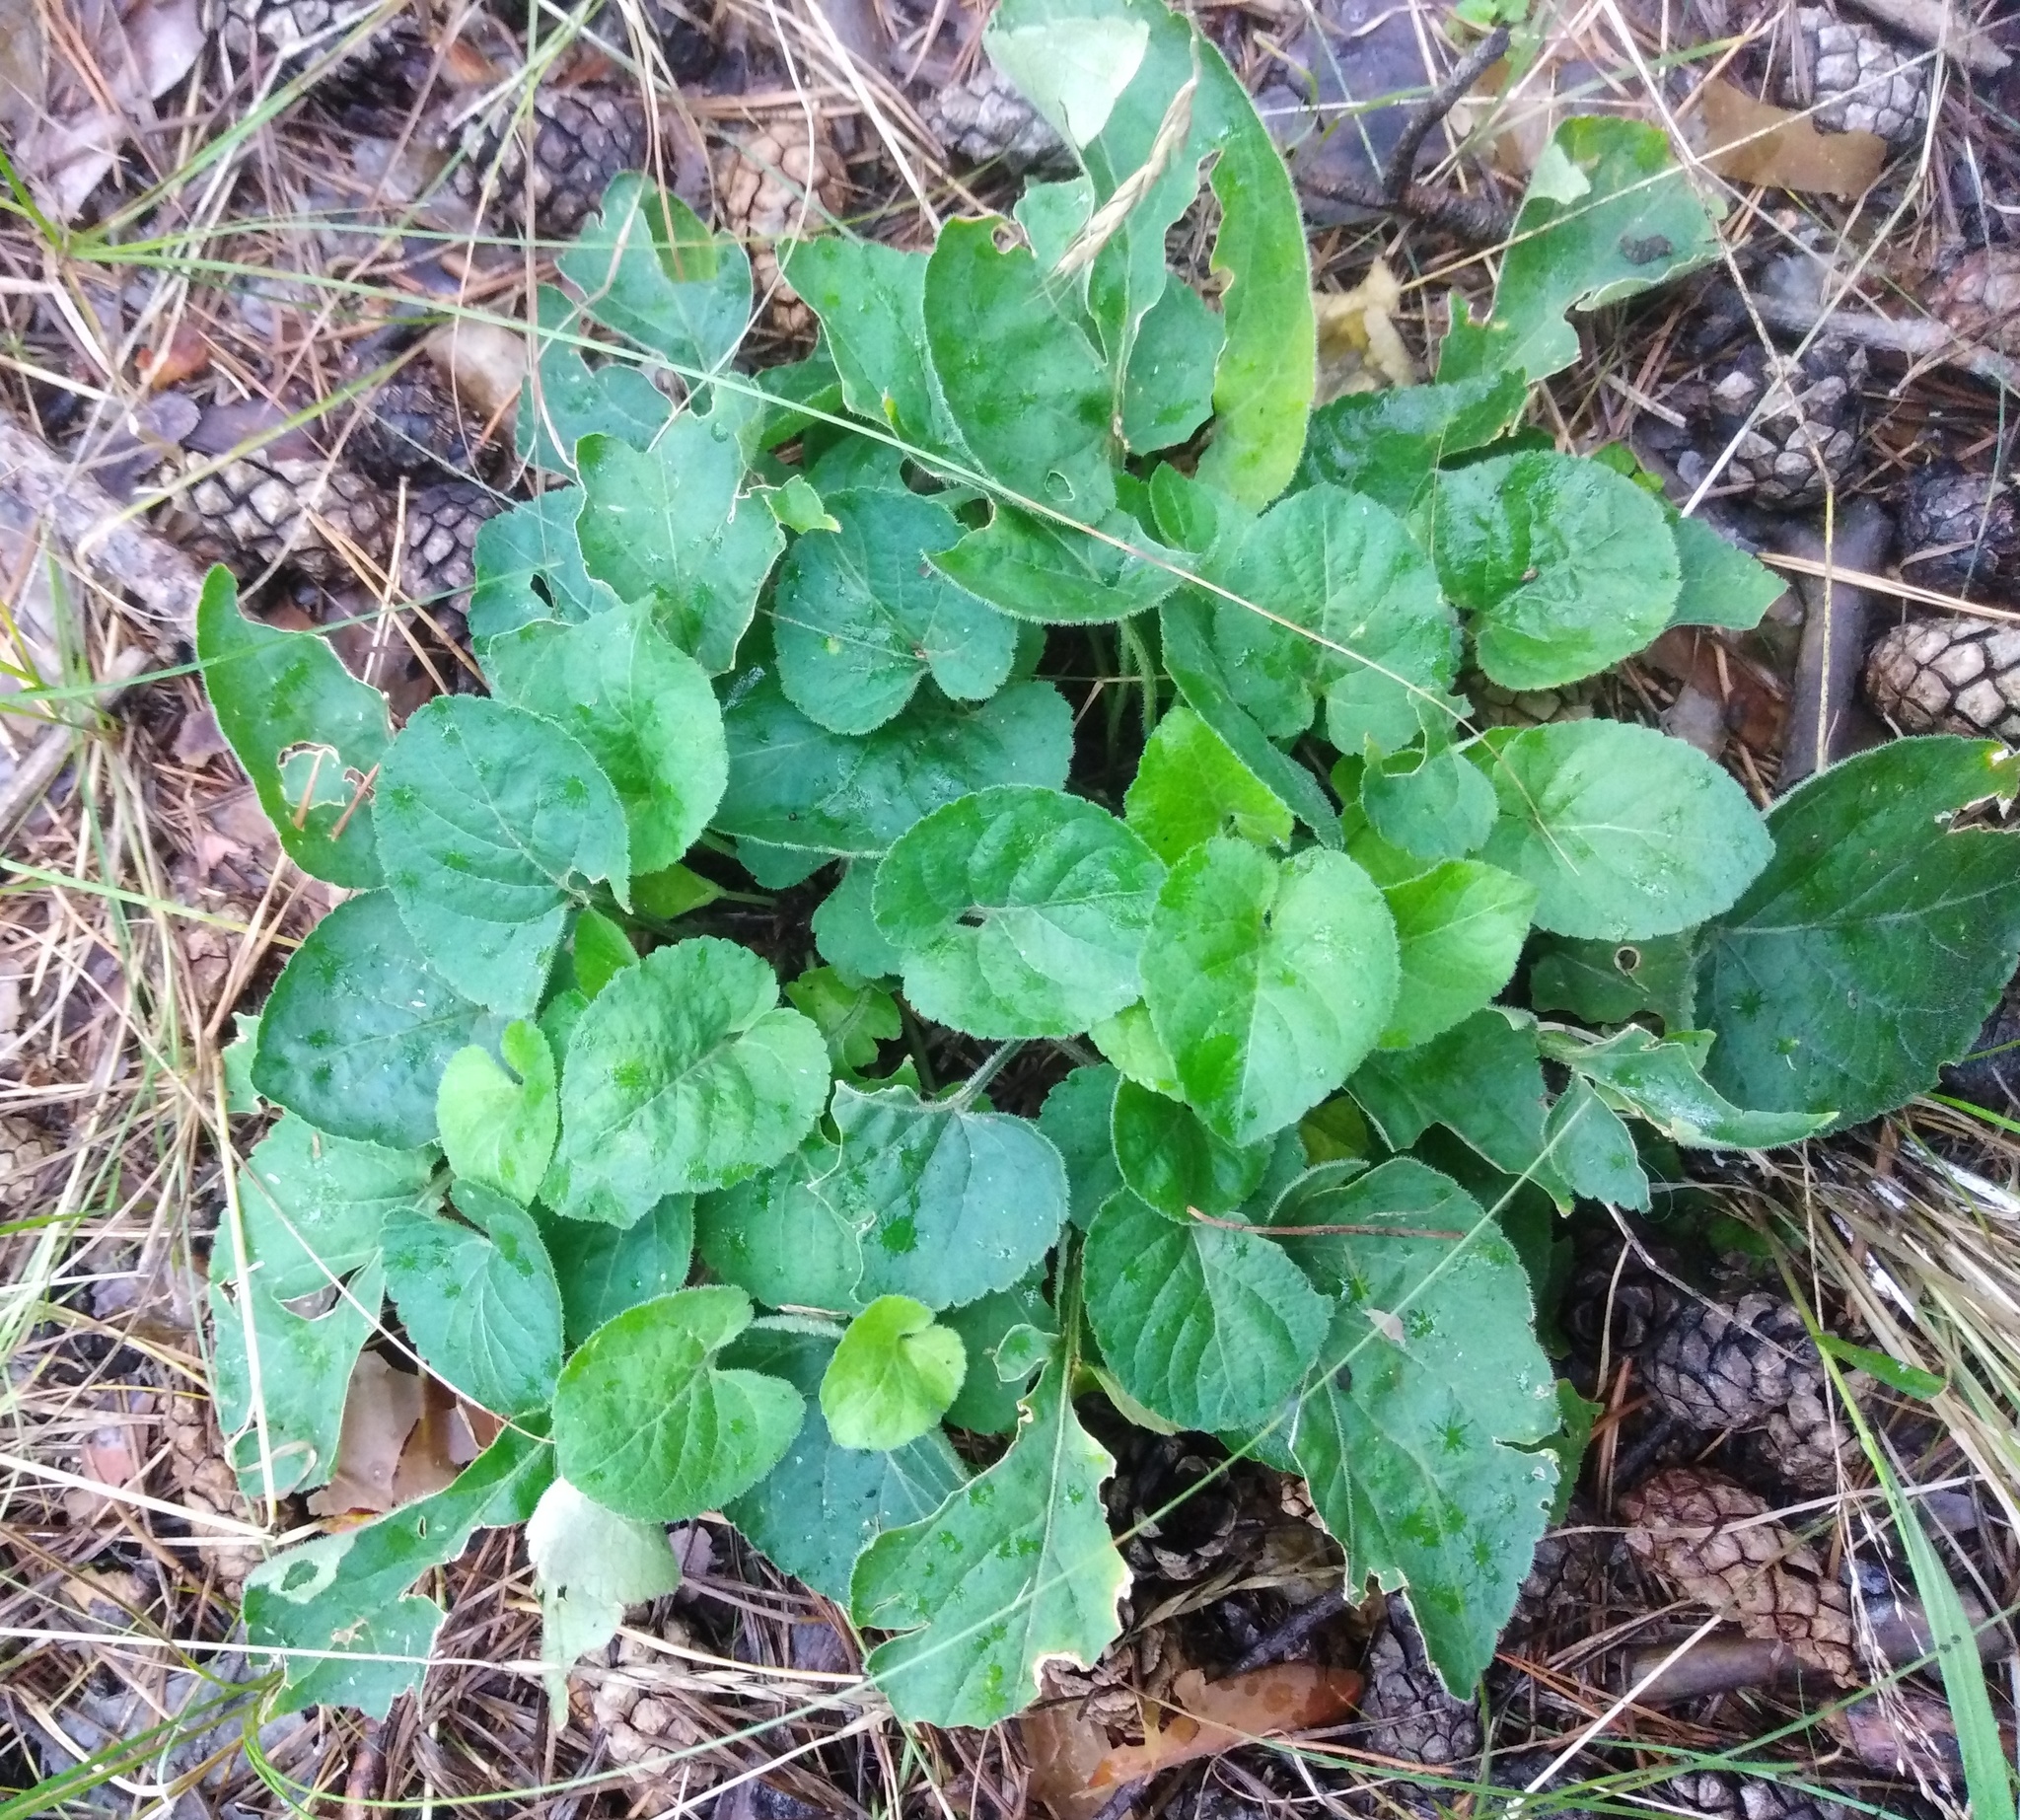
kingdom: Plantae
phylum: Tracheophyta
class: Magnoliopsida
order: Malpighiales
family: Violaceae
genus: Viola
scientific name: Viola collina
